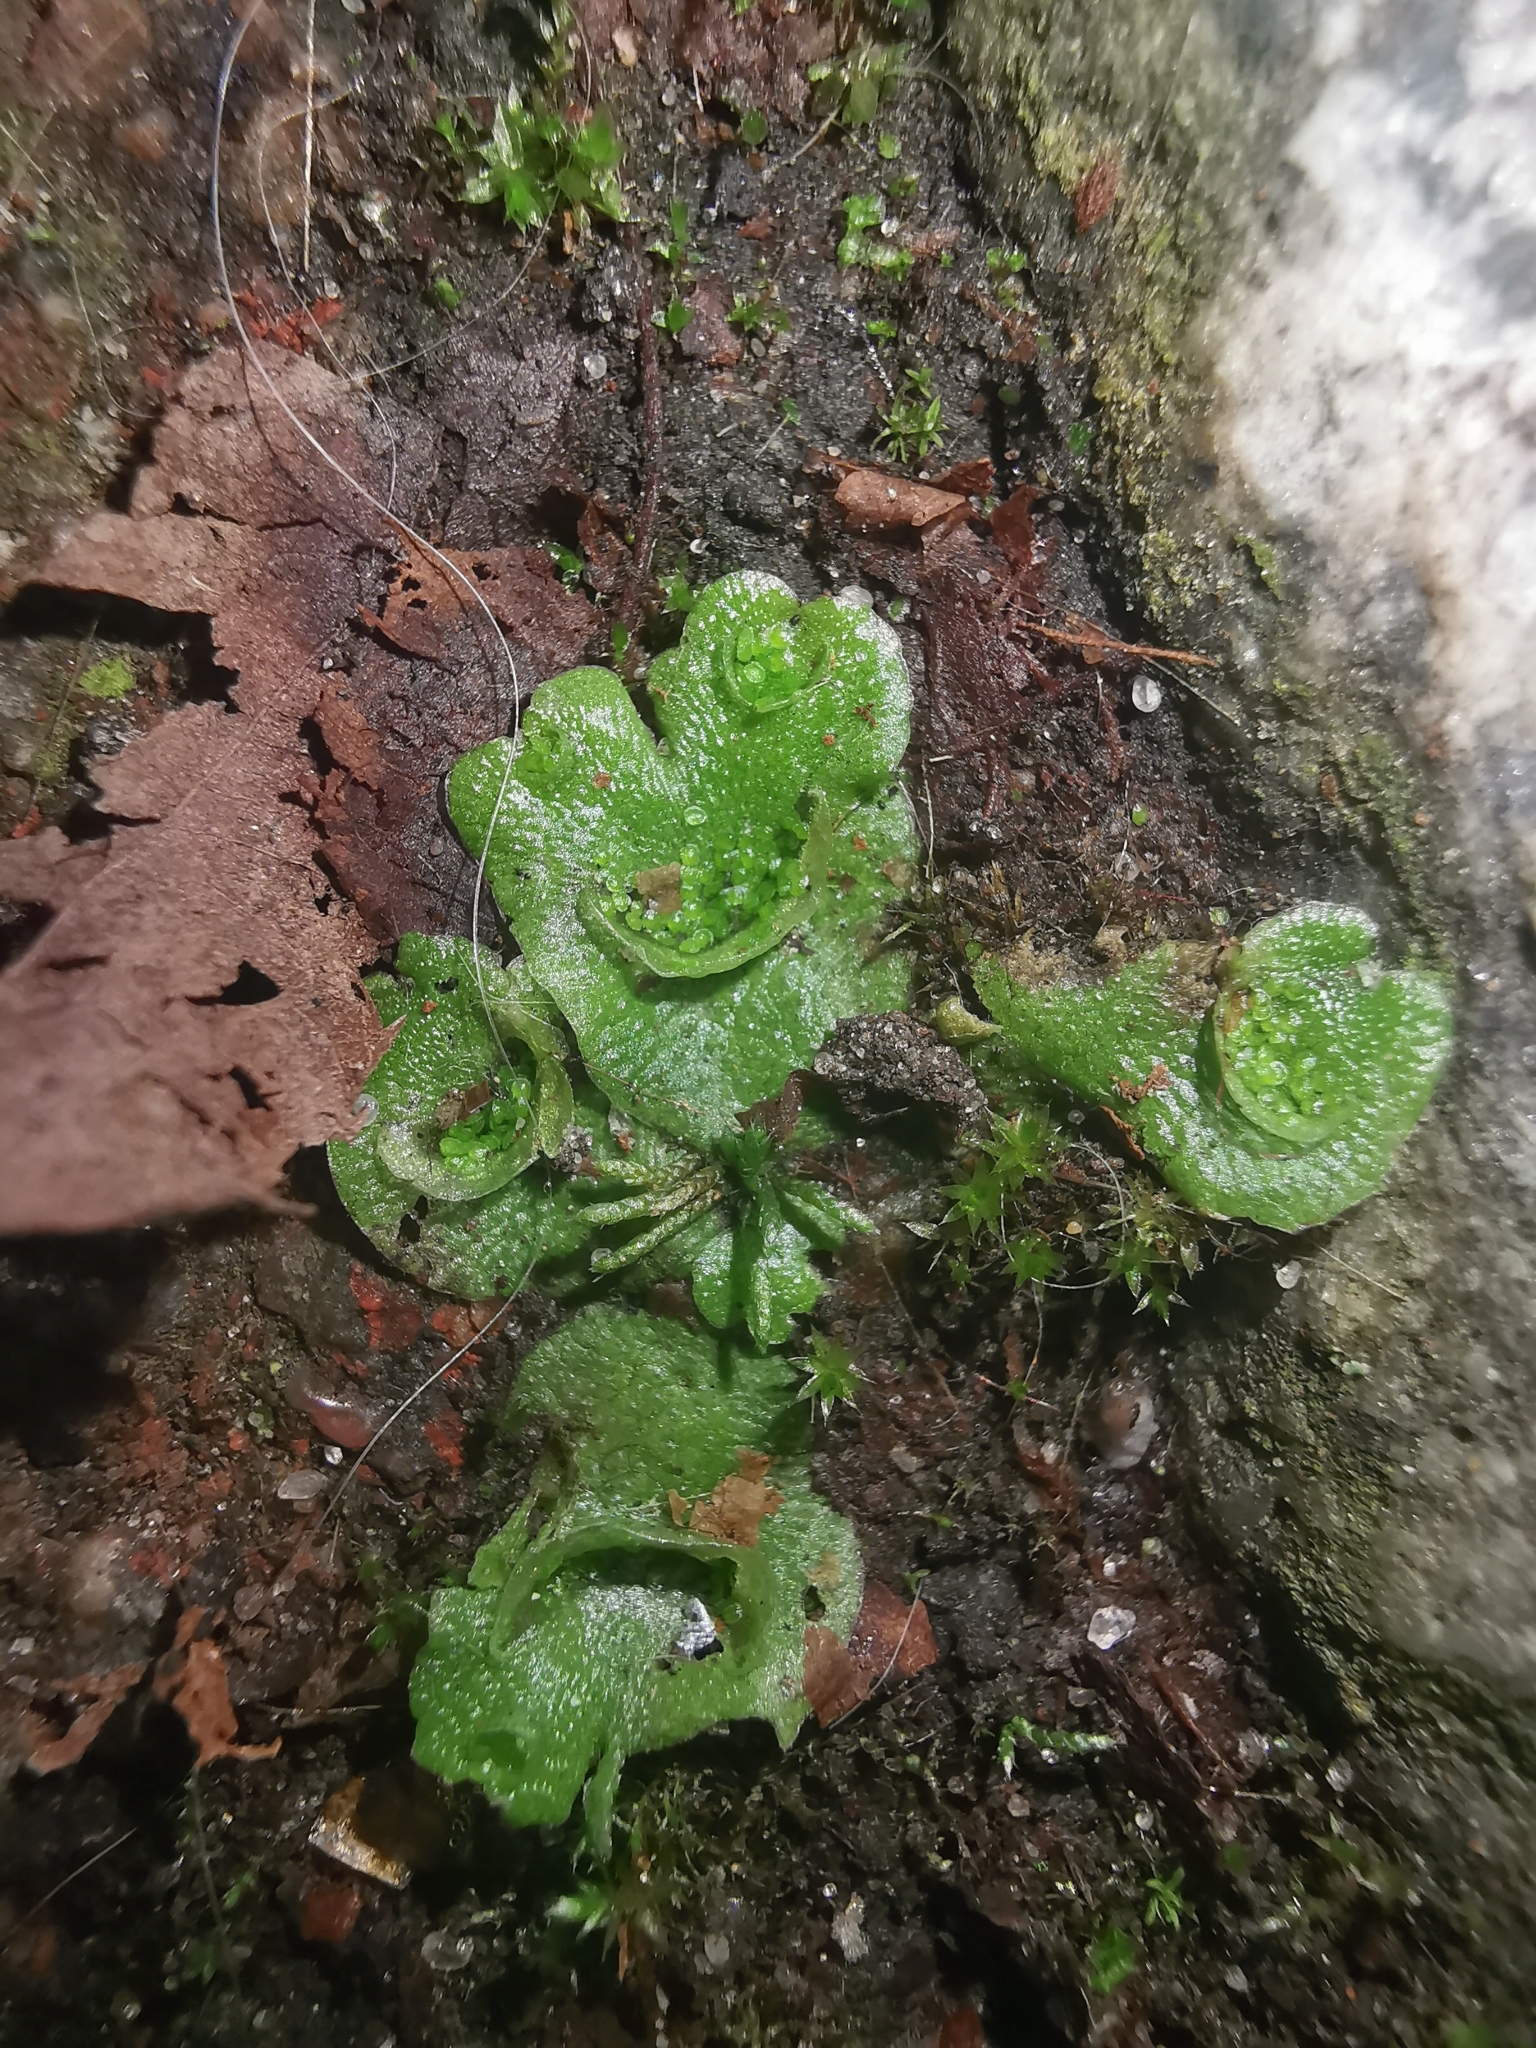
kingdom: Plantae
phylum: Marchantiophyta
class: Marchantiopsida
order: Lunulariales
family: Lunulariaceae
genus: Lunularia
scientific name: Lunularia cruciata
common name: Crescent-cup liverwort
